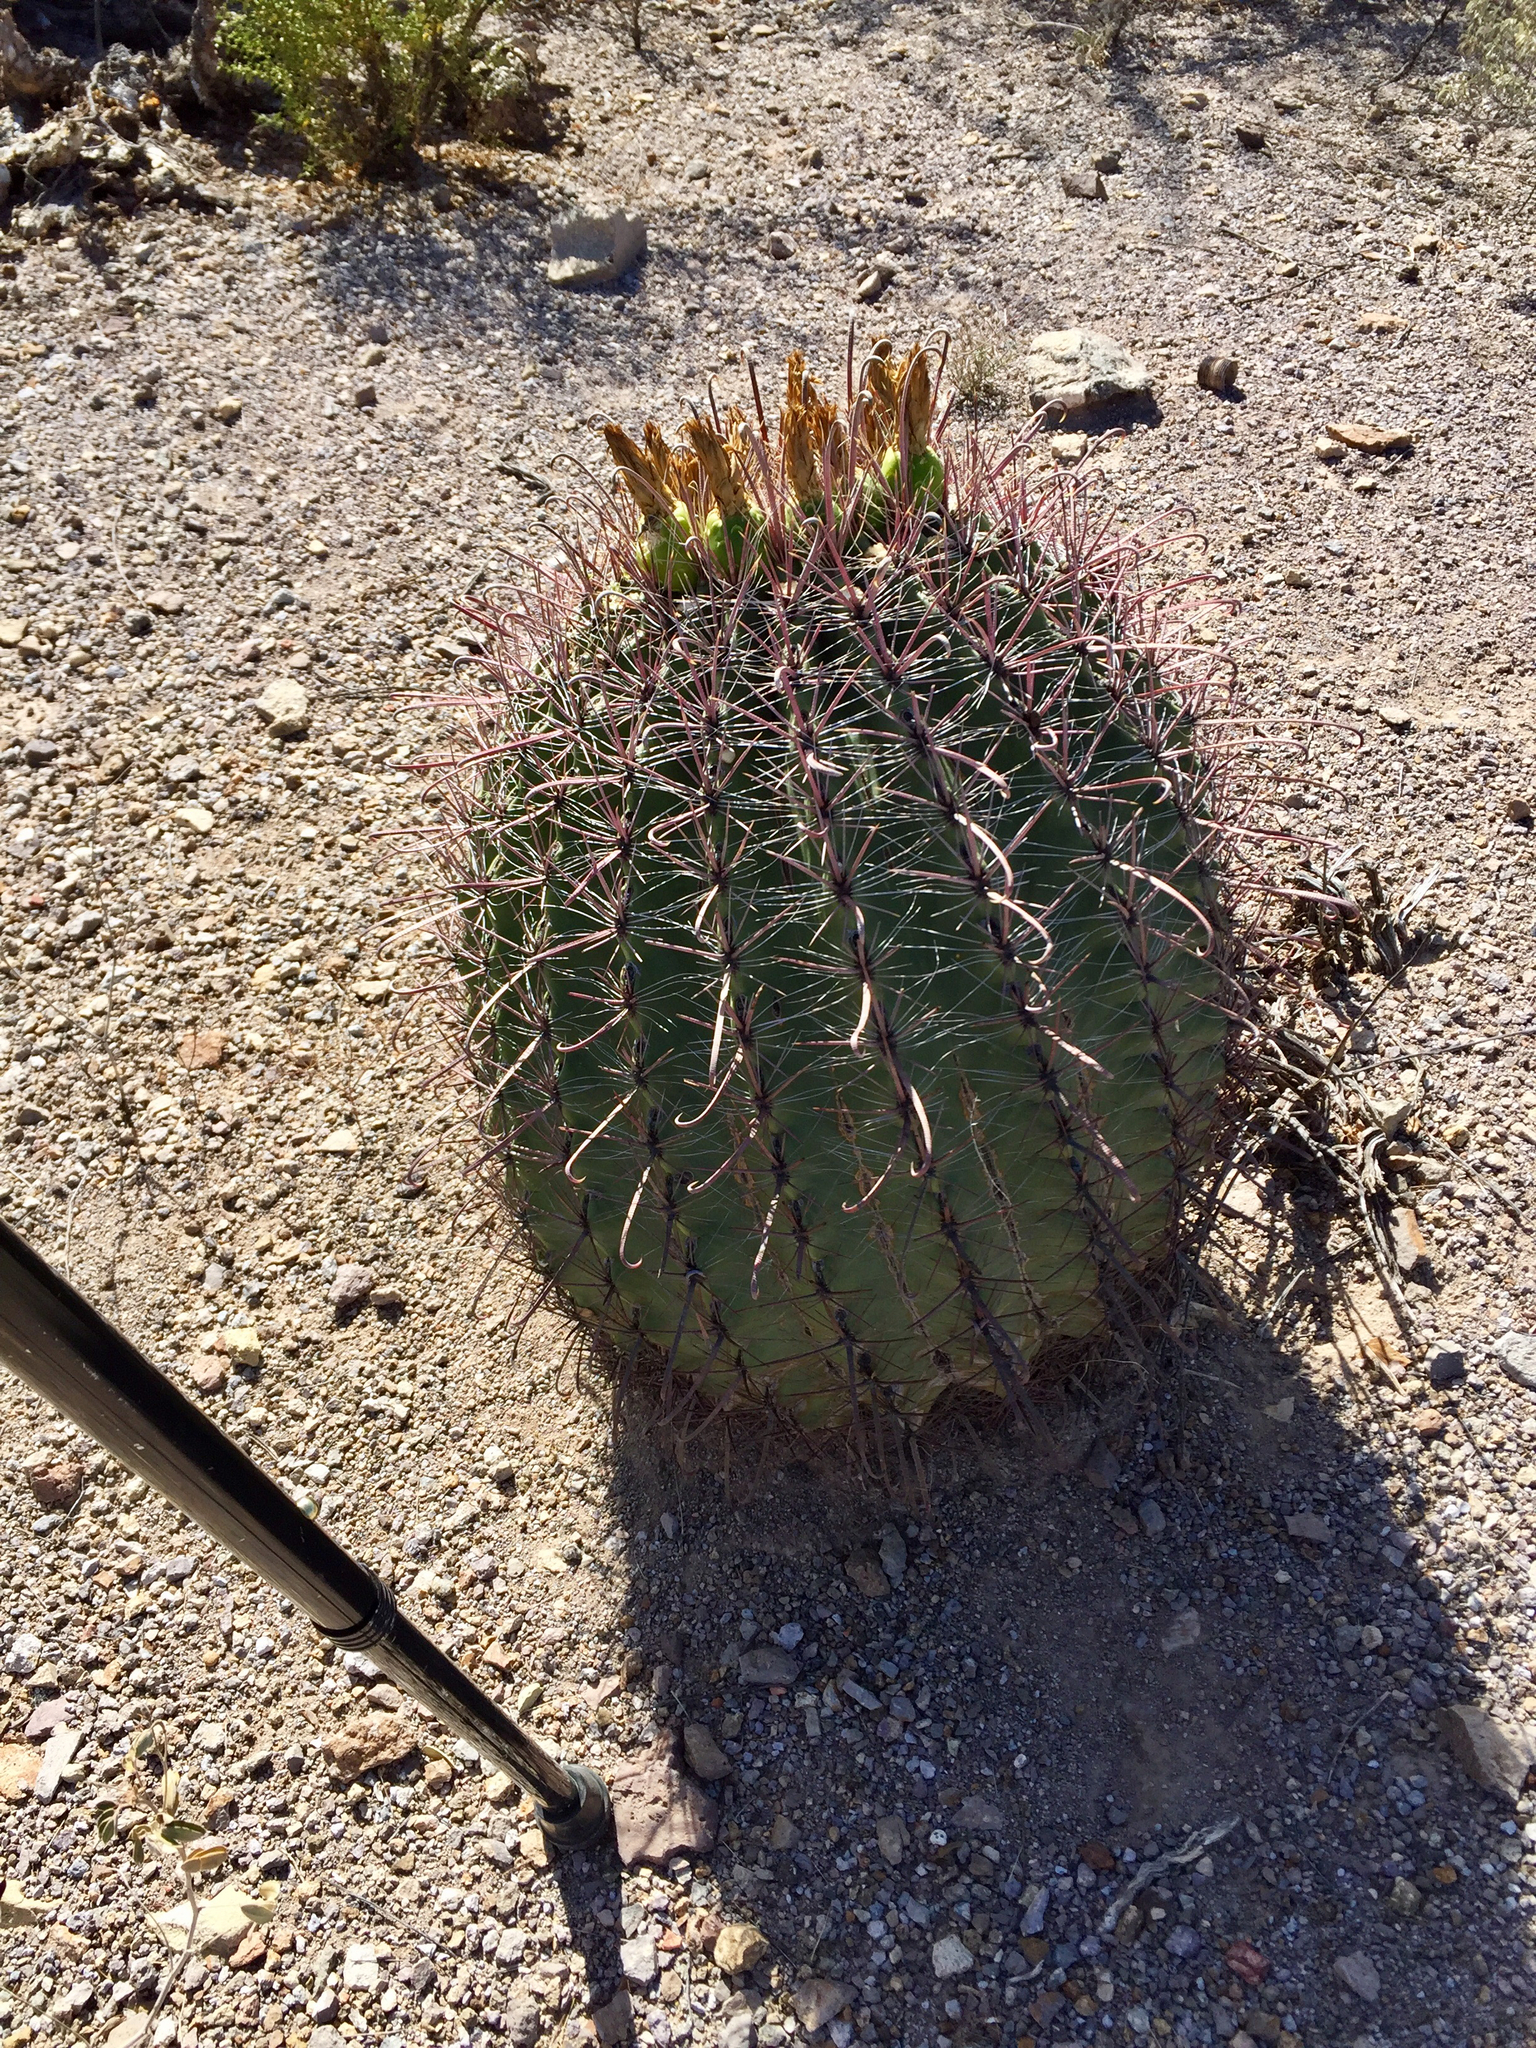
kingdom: Plantae
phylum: Tracheophyta
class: Magnoliopsida
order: Caryophyllales
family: Cactaceae
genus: Ferocactus
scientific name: Ferocactus wislizeni
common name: Candy barrel cactus
